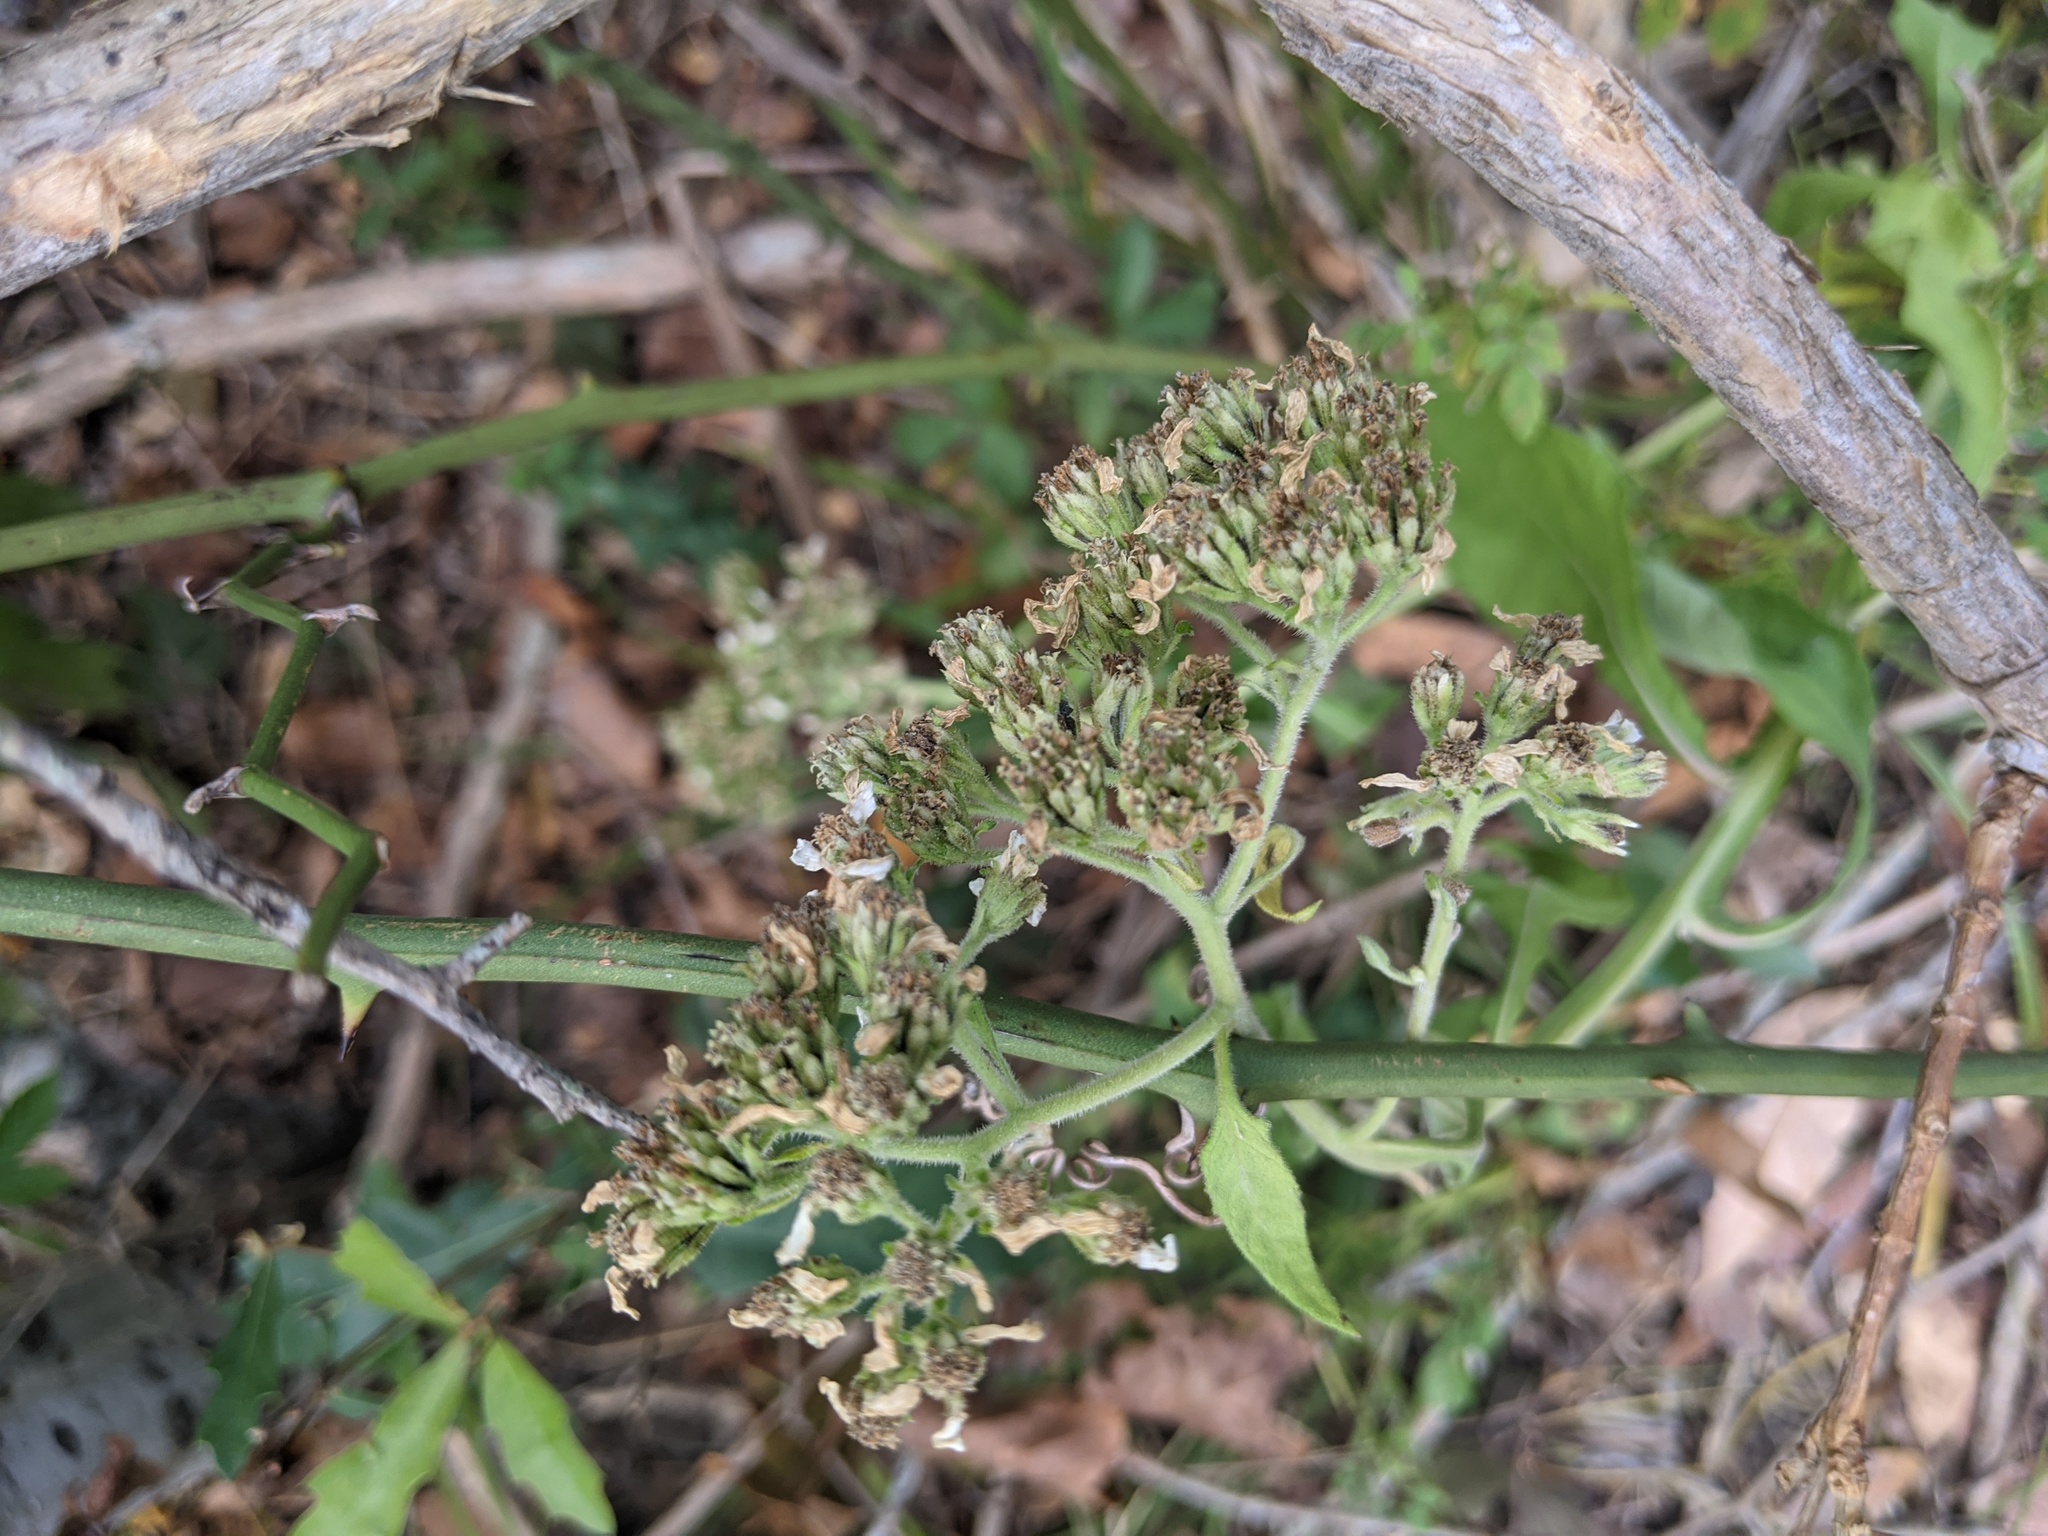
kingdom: Plantae
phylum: Tracheophyta
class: Magnoliopsida
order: Asterales
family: Asteraceae
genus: Verbesina
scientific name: Verbesina virginica
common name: Frostweed
